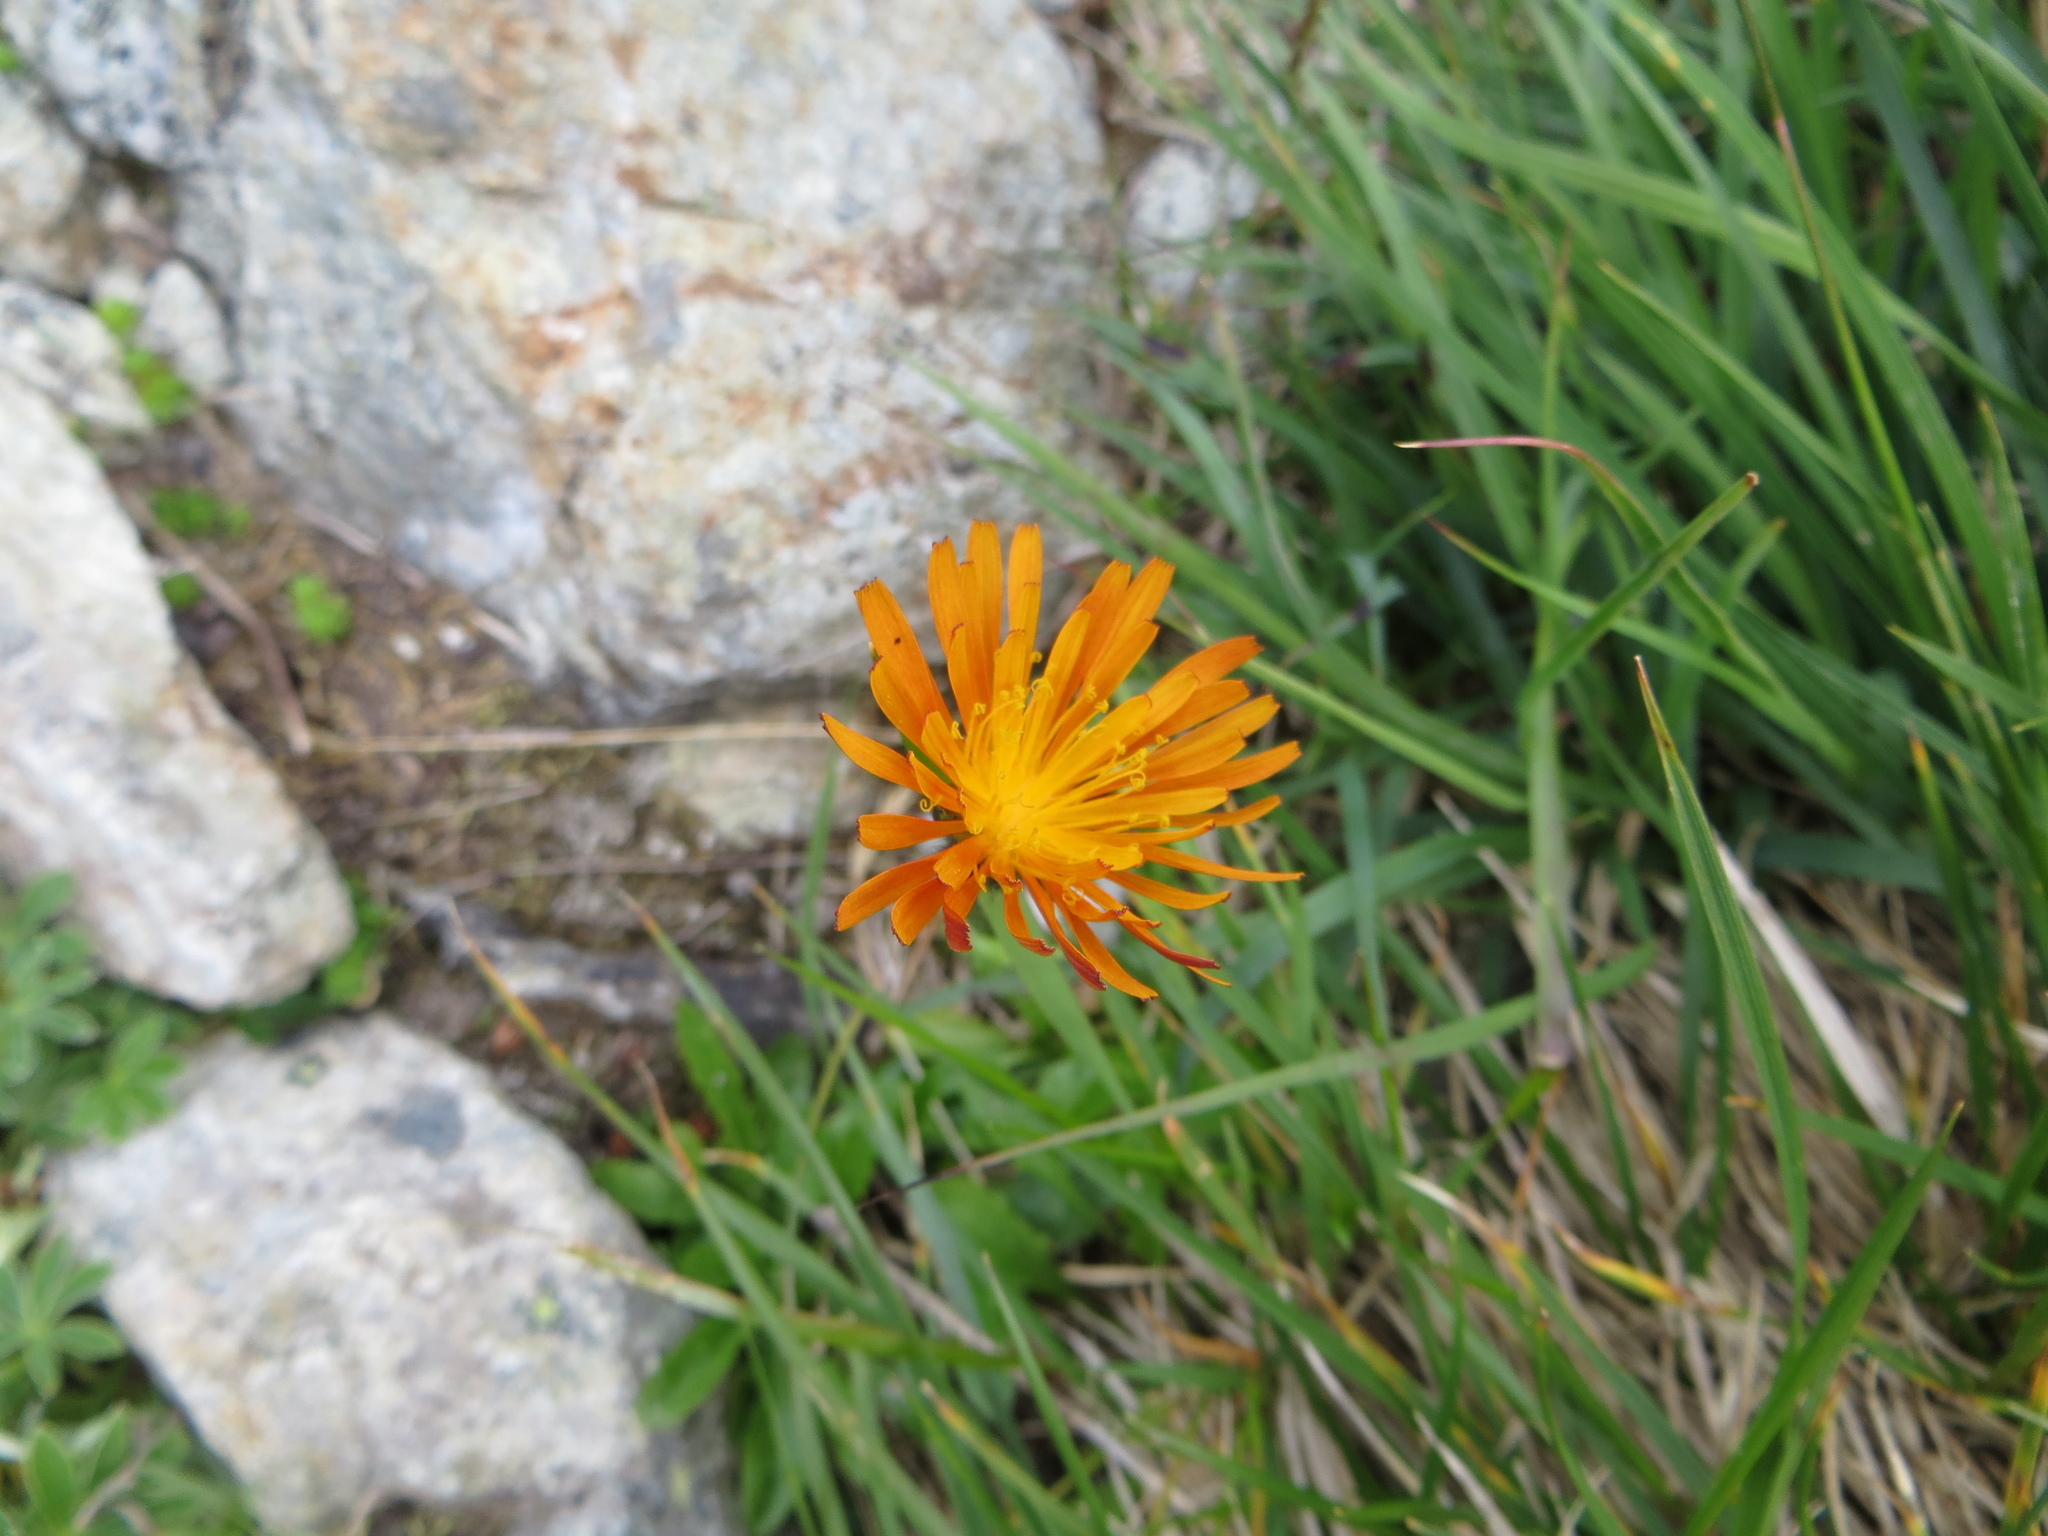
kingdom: Plantae
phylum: Tracheophyta
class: Magnoliopsida
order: Asterales
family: Asteraceae
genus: Crepis
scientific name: Crepis aurea
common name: Golden hawk's-beard
